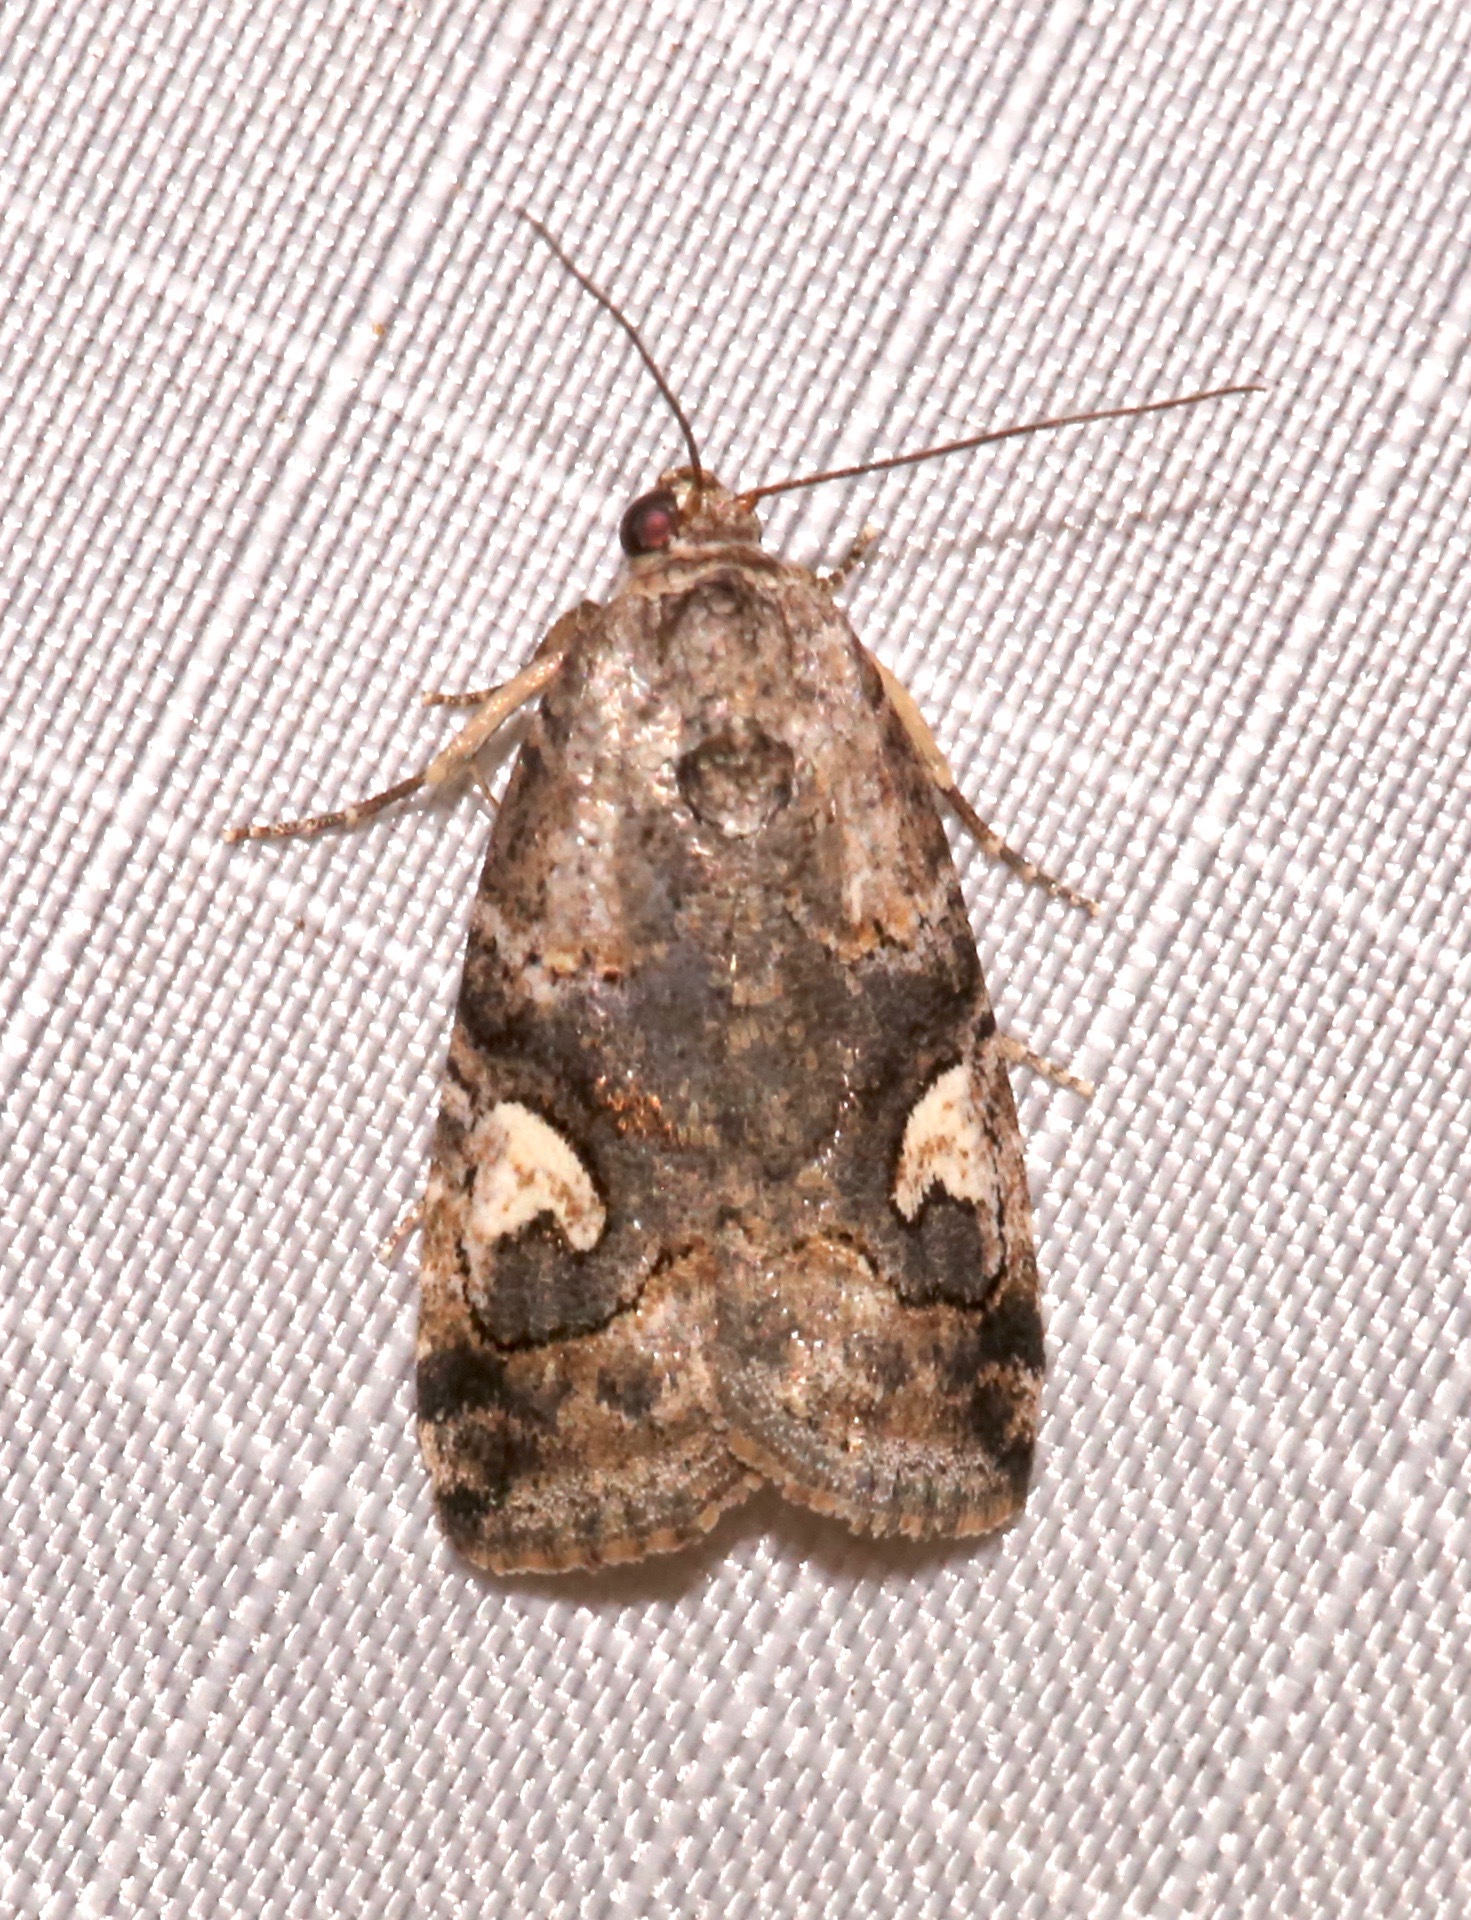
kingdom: Animalia
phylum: Arthropoda
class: Insecta
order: Lepidoptera
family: Noctuidae
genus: Metaponpneumata
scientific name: Metaponpneumata rogenhoferi
